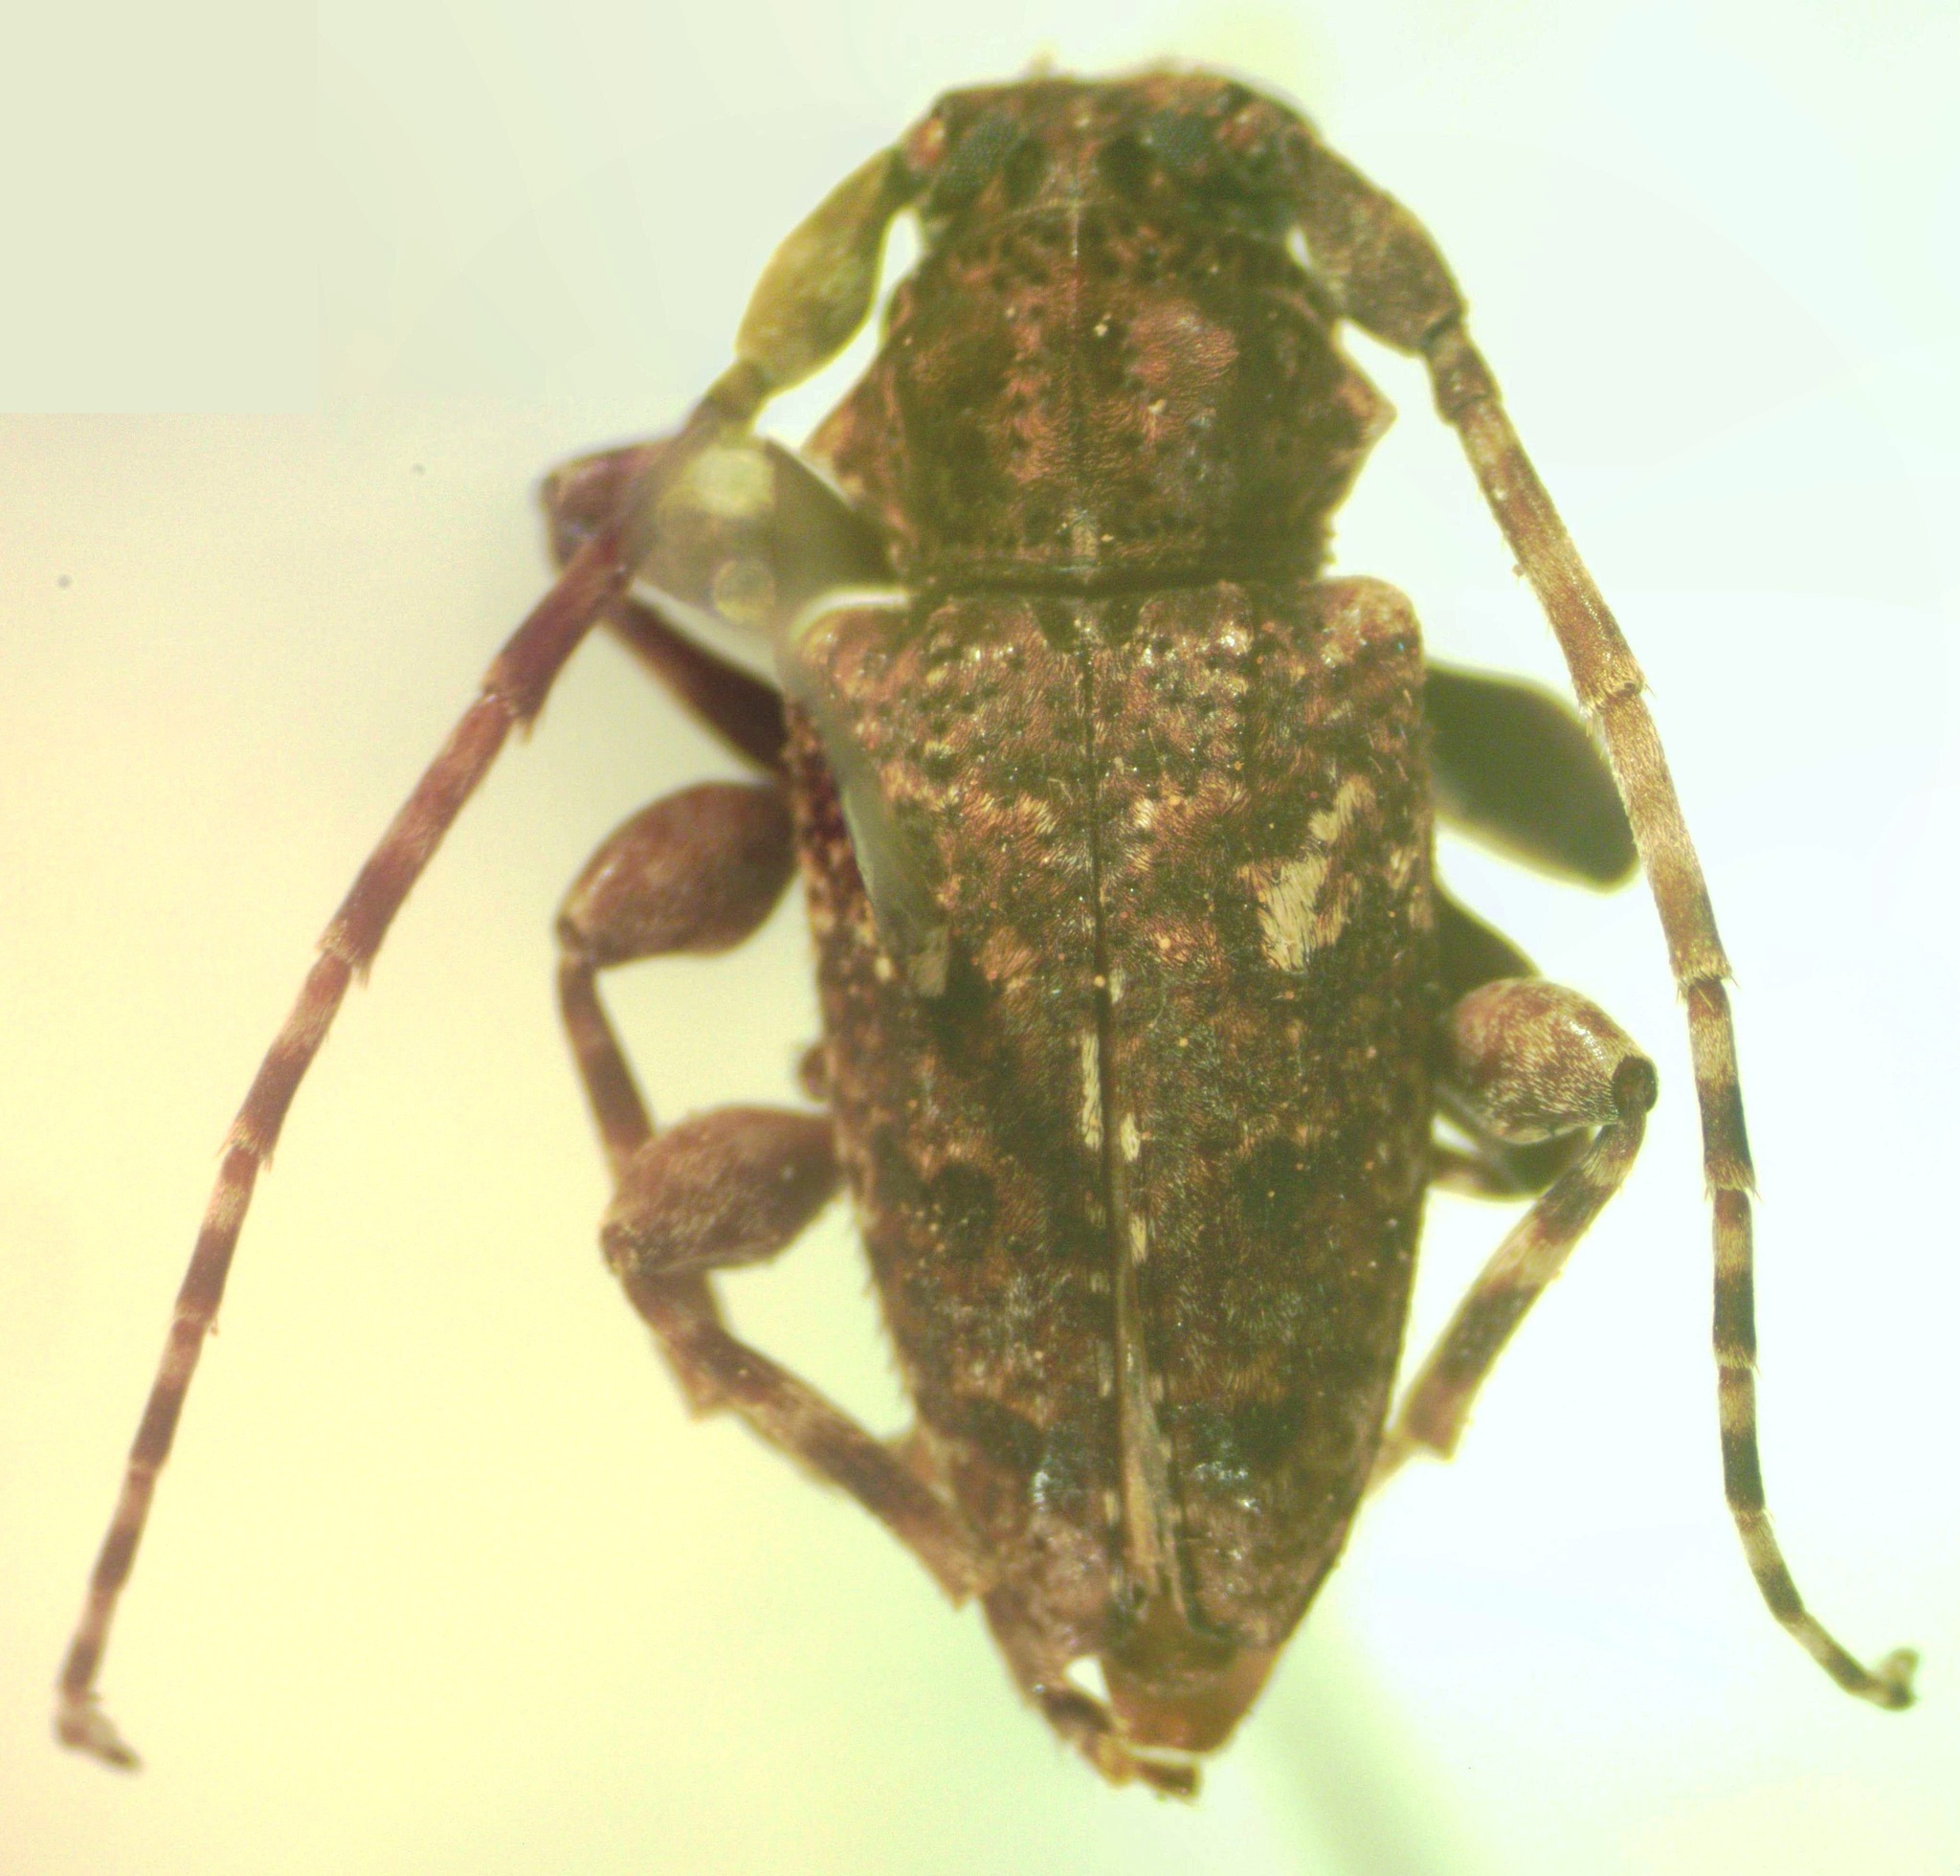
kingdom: Animalia
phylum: Arthropoda
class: Insecta
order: Coleoptera
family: Cerambycidae
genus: Psapharochrus
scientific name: Psapharochrus circumflexus
